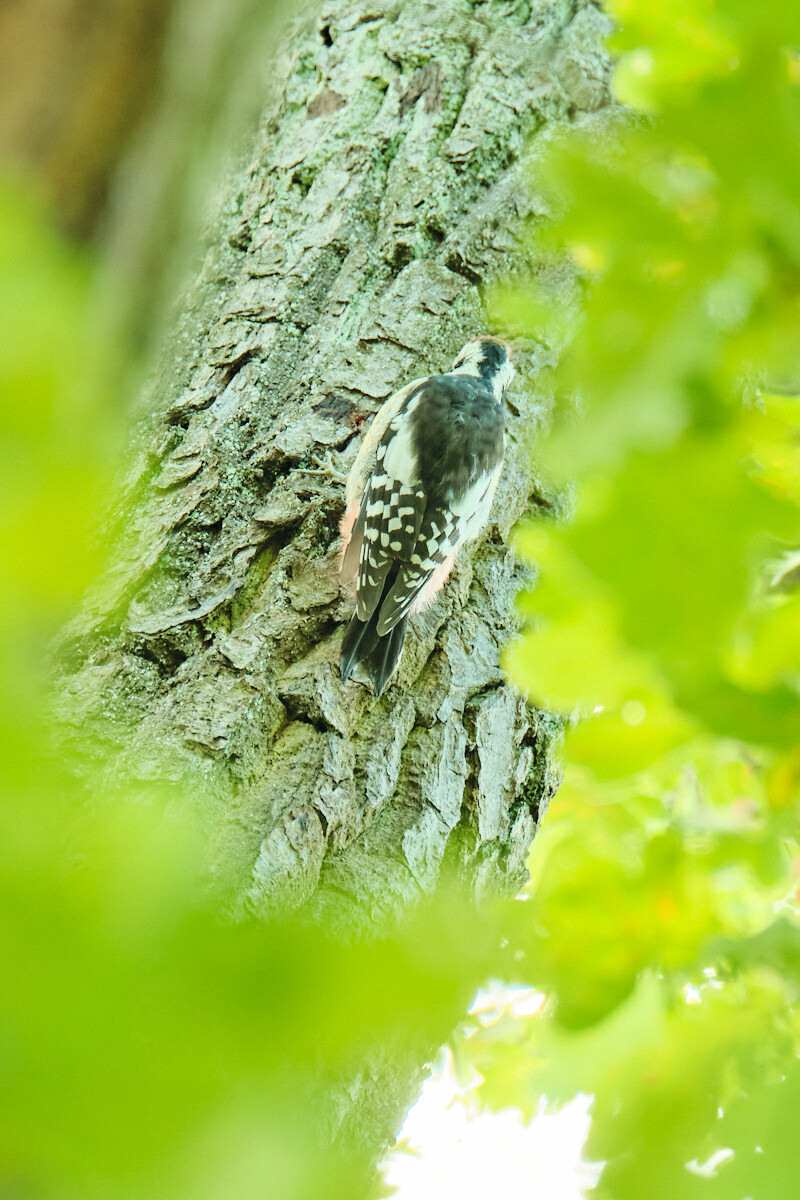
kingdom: Animalia
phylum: Chordata
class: Aves
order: Piciformes
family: Picidae
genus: Dendrocoptes
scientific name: Dendrocoptes medius
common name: Middle spotted woodpecker
